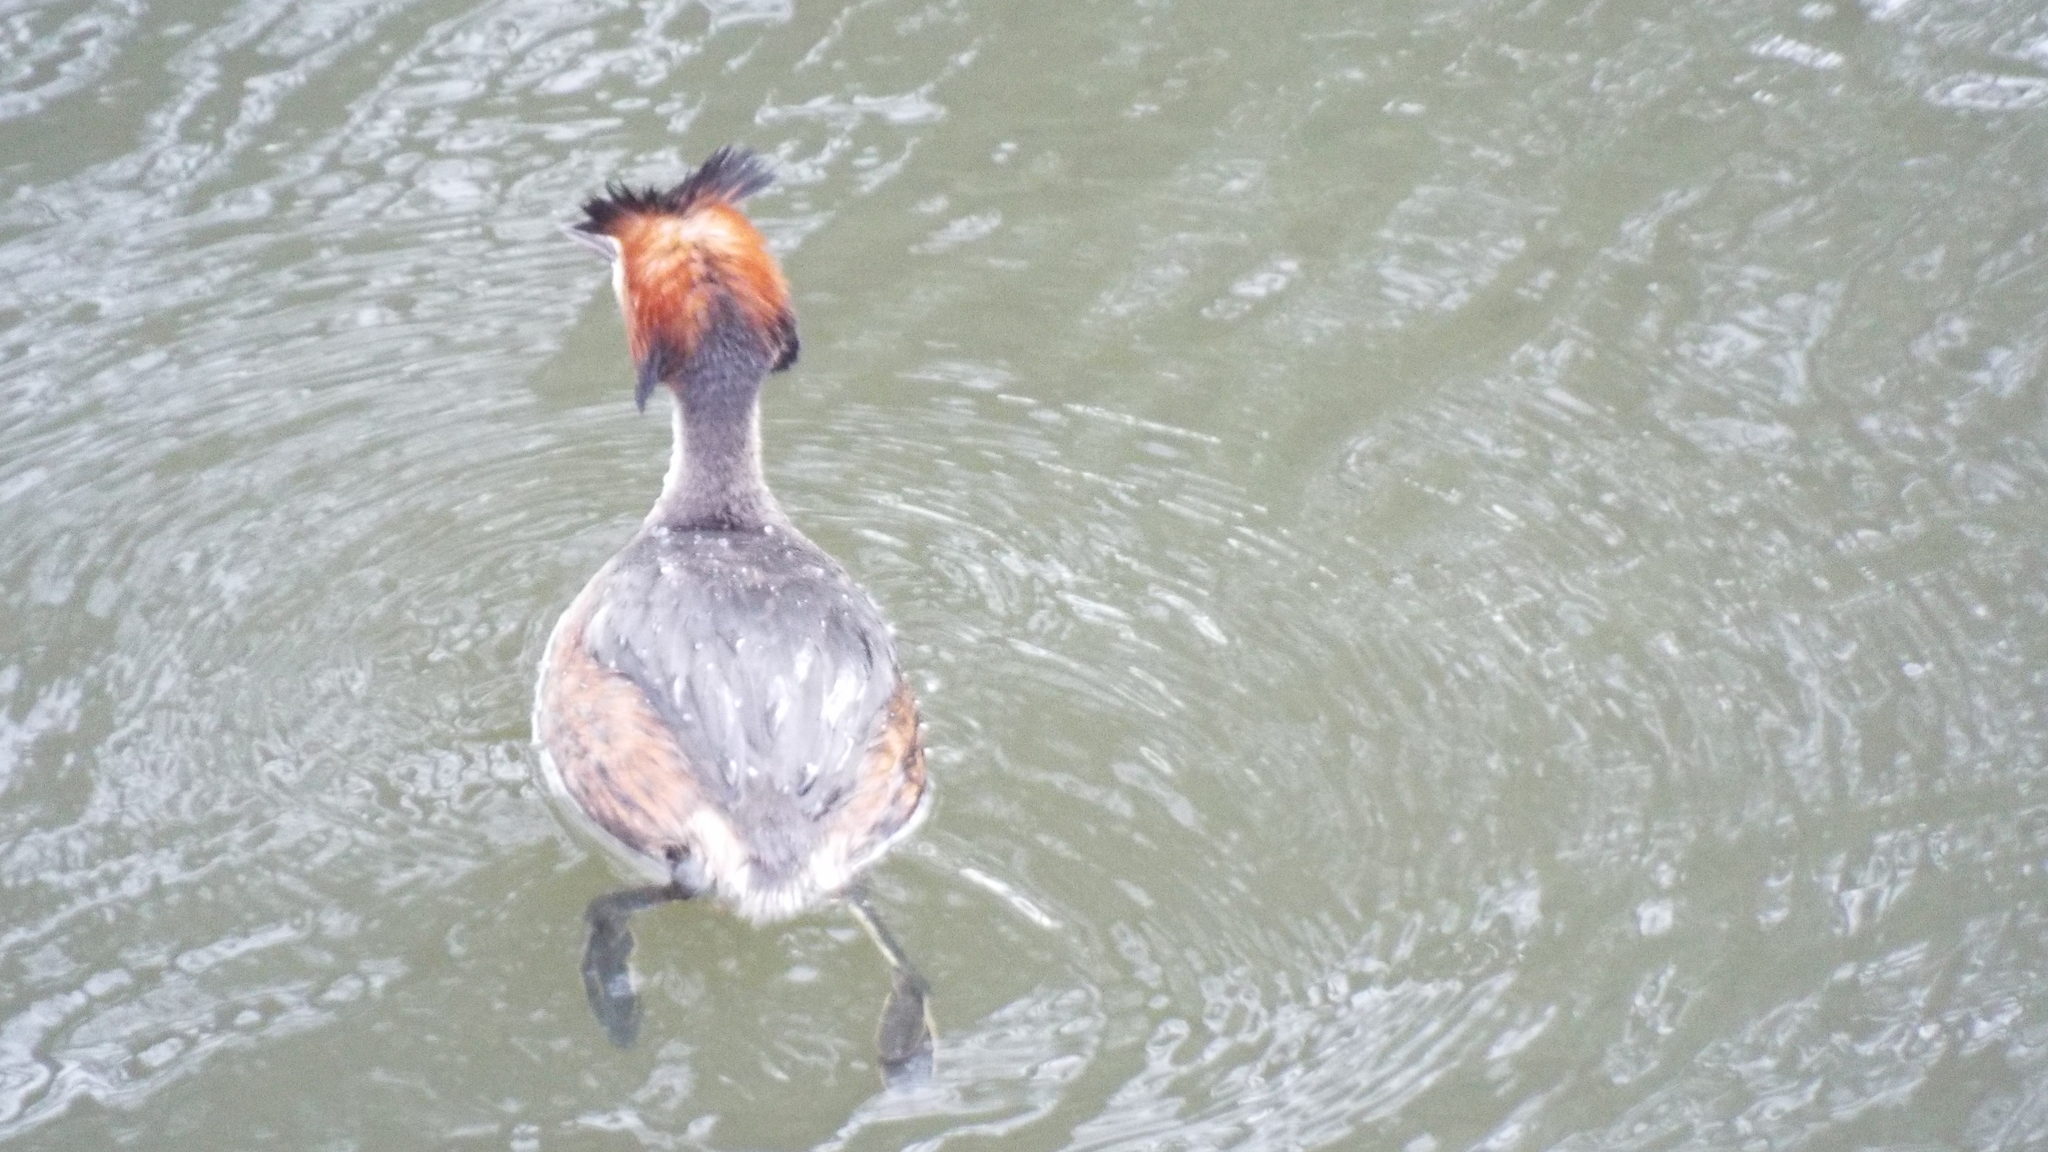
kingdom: Animalia
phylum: Chordata
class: Aves
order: Podicipediformes
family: Podicipedidae
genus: Podiceps
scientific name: Podiceps cristatus
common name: Great crested grebe
